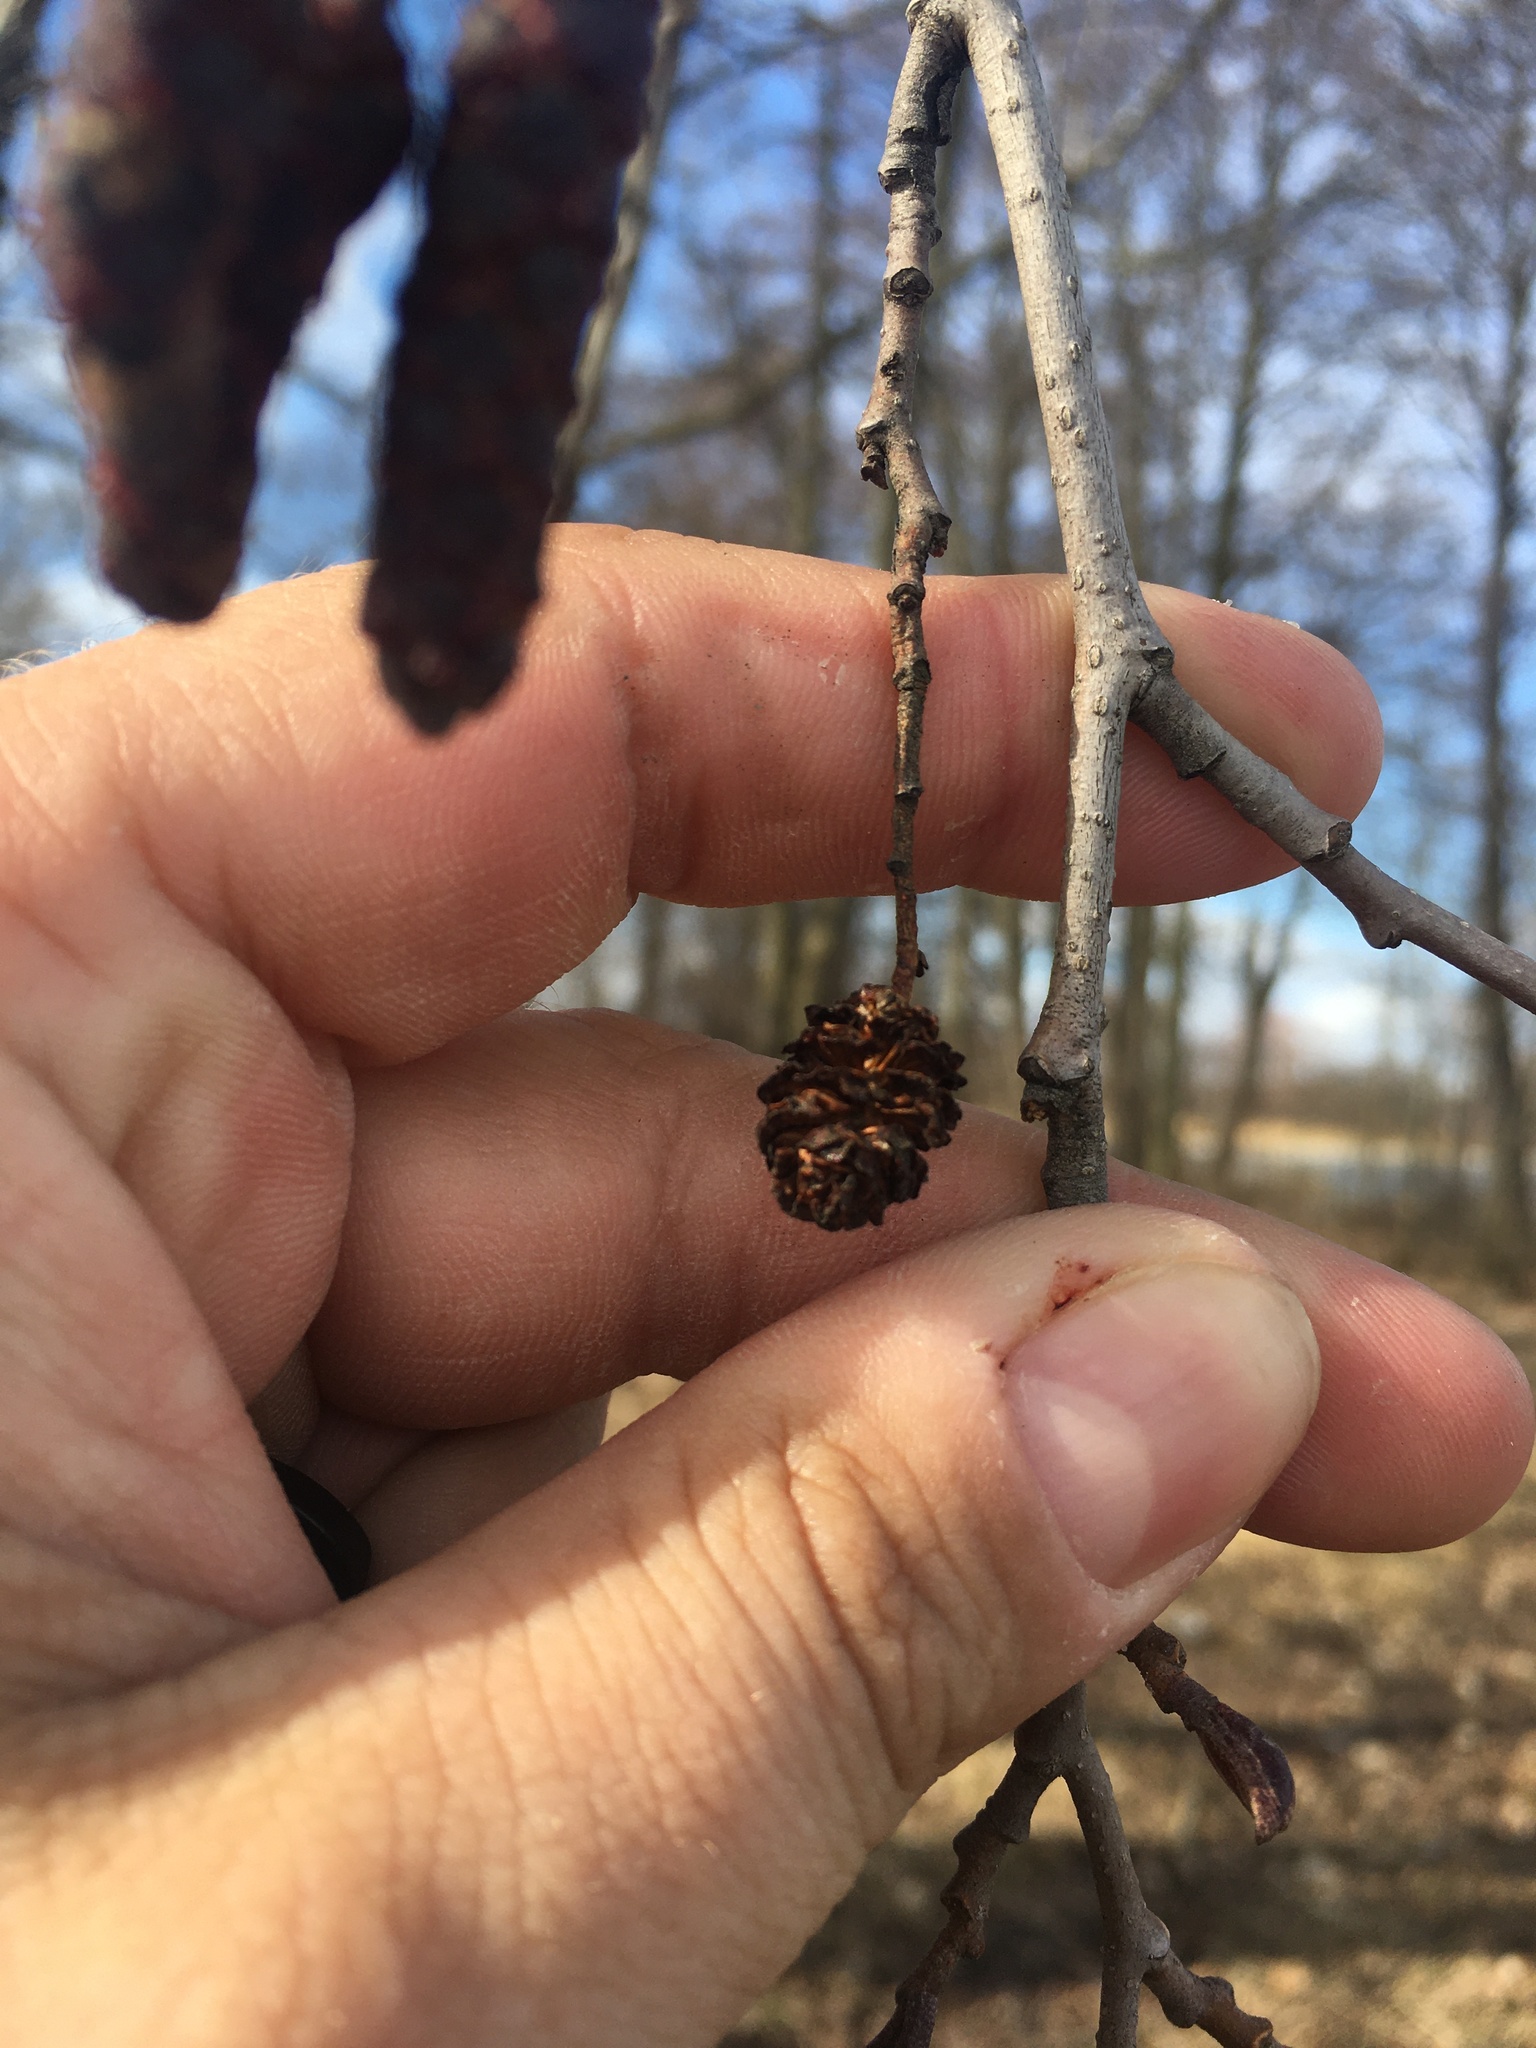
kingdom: Plantae
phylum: Tracheophyta
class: Magnoliopsida
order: Fagales
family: Betulaceae
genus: Alnus
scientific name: Alnus incana
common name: Grey alder
